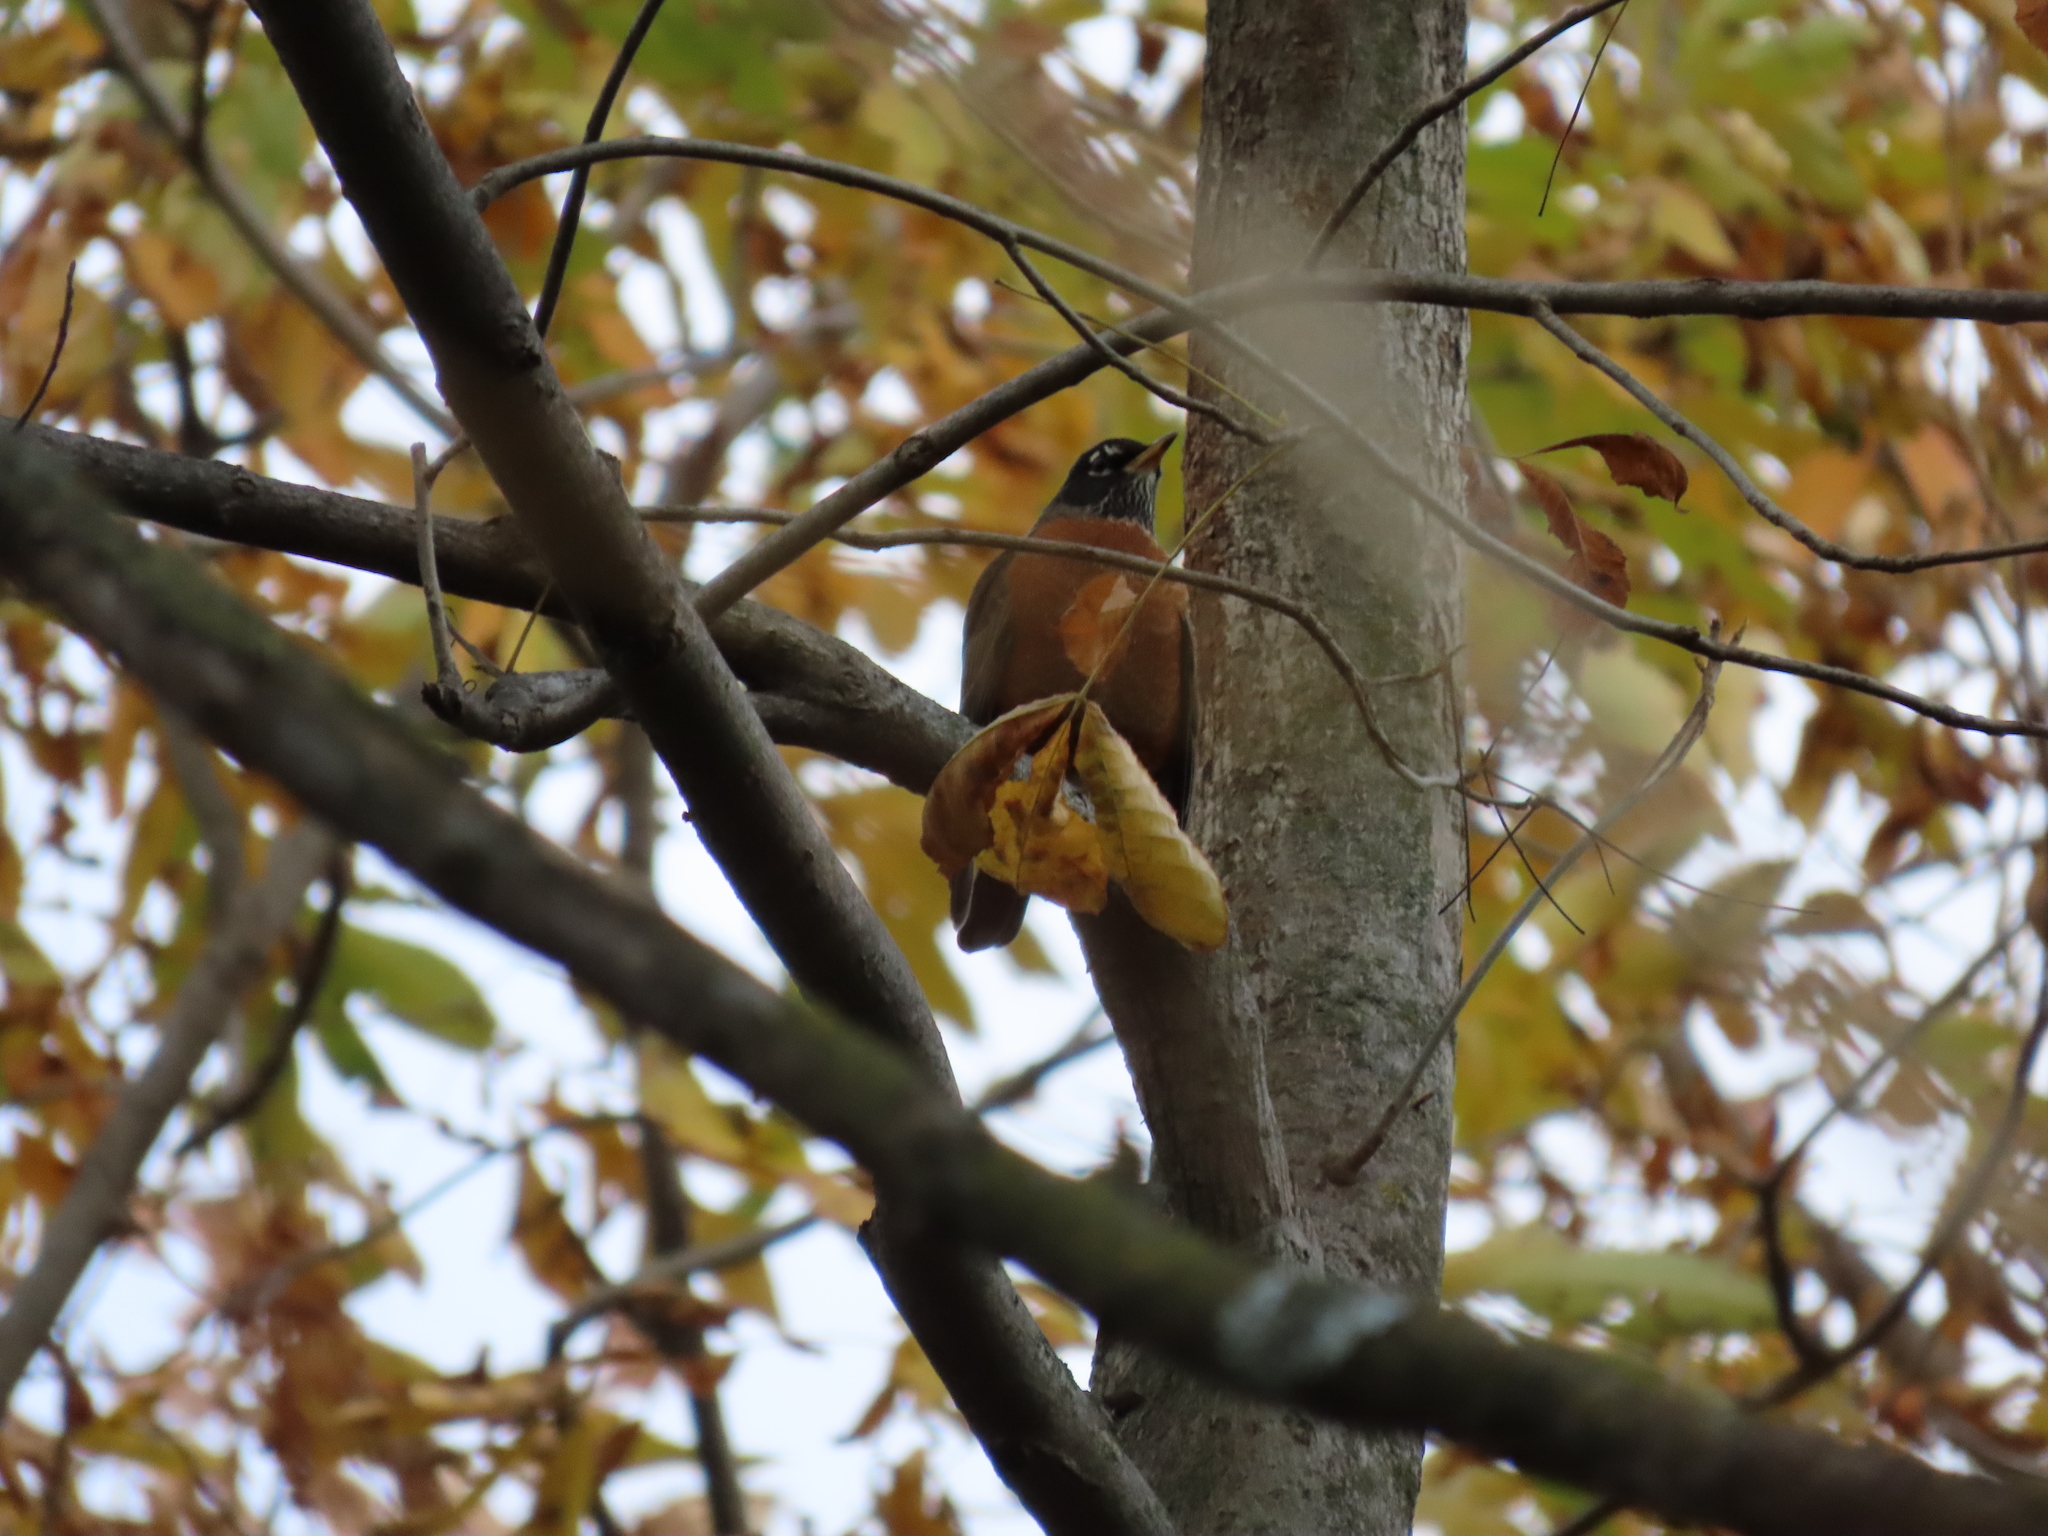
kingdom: Animalia
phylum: Chordata
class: Aves
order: Passeriformes
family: Turdidae
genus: Turdus
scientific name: Turdus migratorius
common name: American robin
